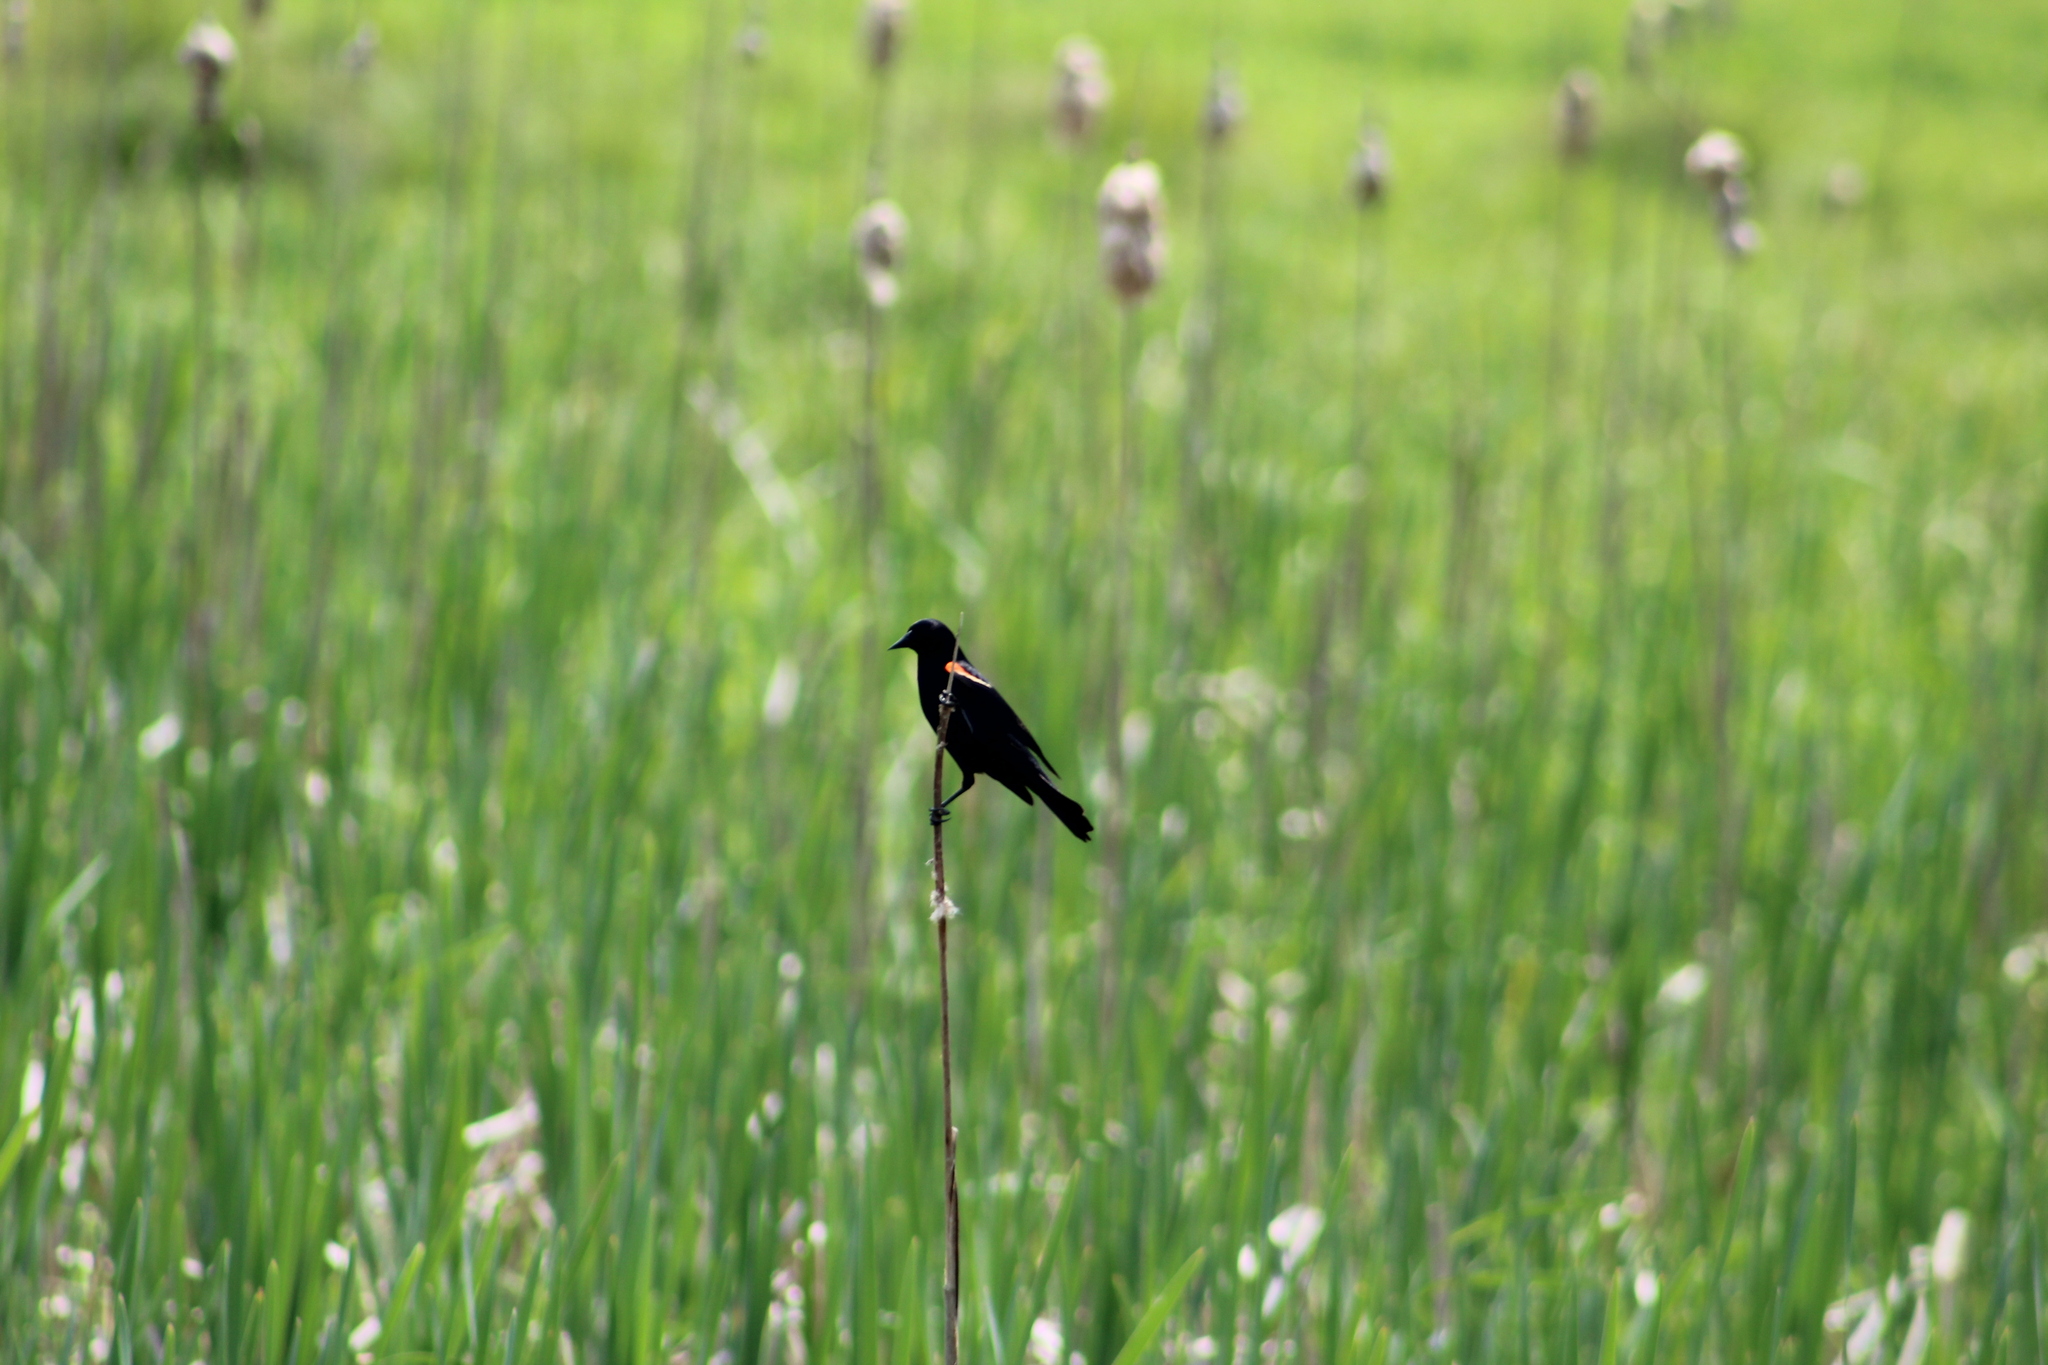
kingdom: Animalia
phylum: Chordata
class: Aves
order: Passeriformes
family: Icteridae
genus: Agelaius
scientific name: Agelaius phoeniceus
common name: Red-winged blackbird
